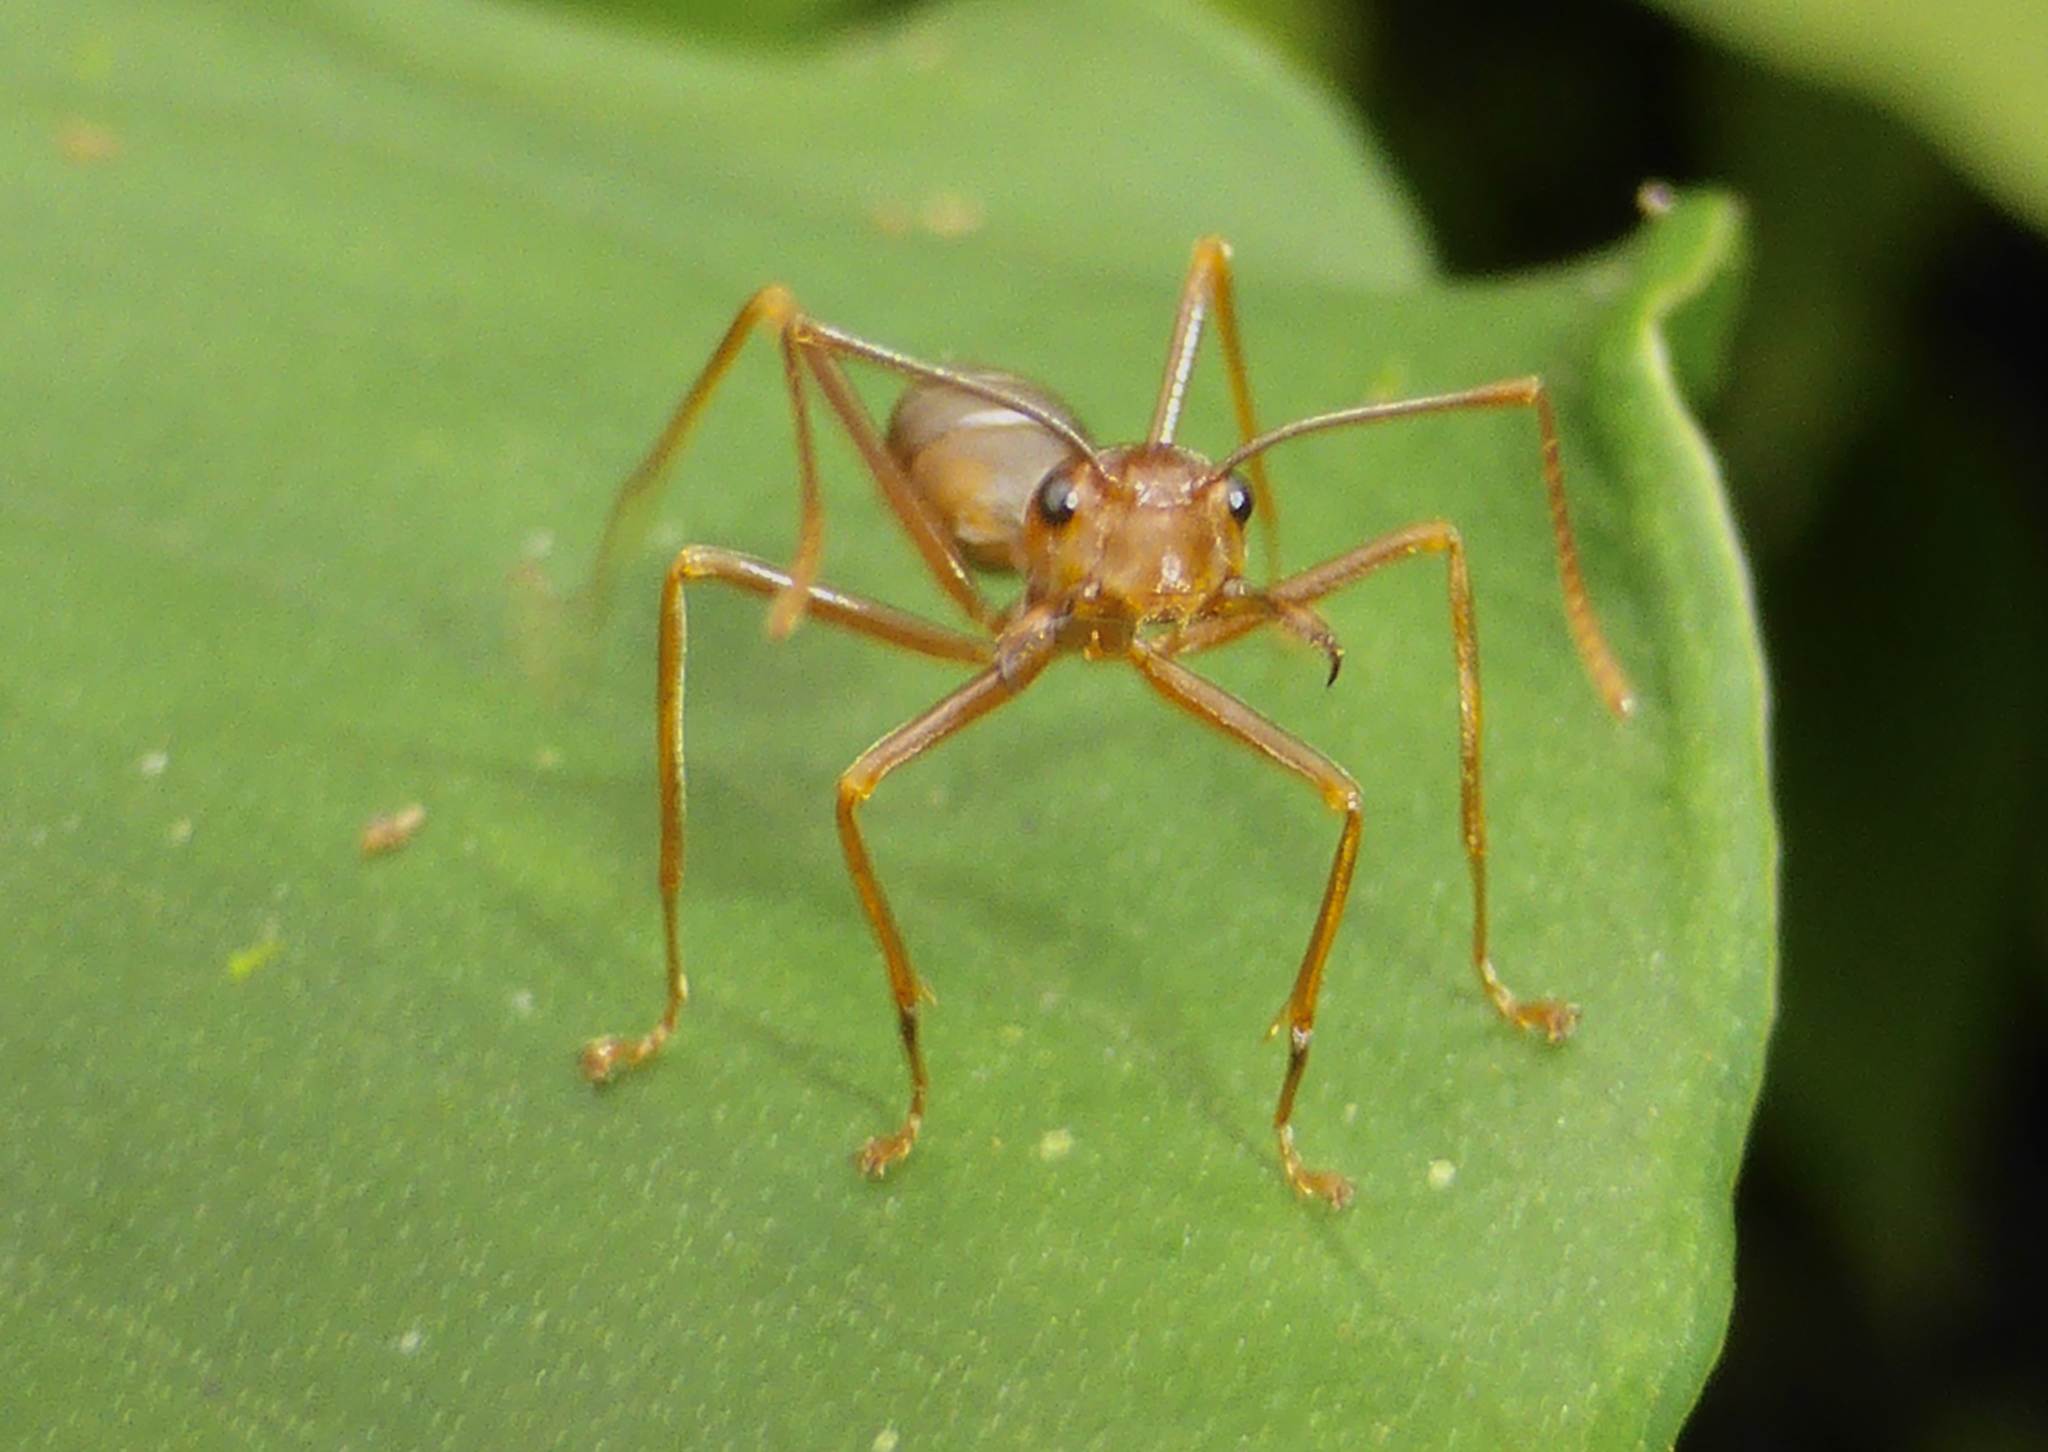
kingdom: Animalia
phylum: Arthropoda
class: Insecta
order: Hymenoptera
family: Formicidae
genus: Oecophylla
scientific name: Oecophylla smaragdina
